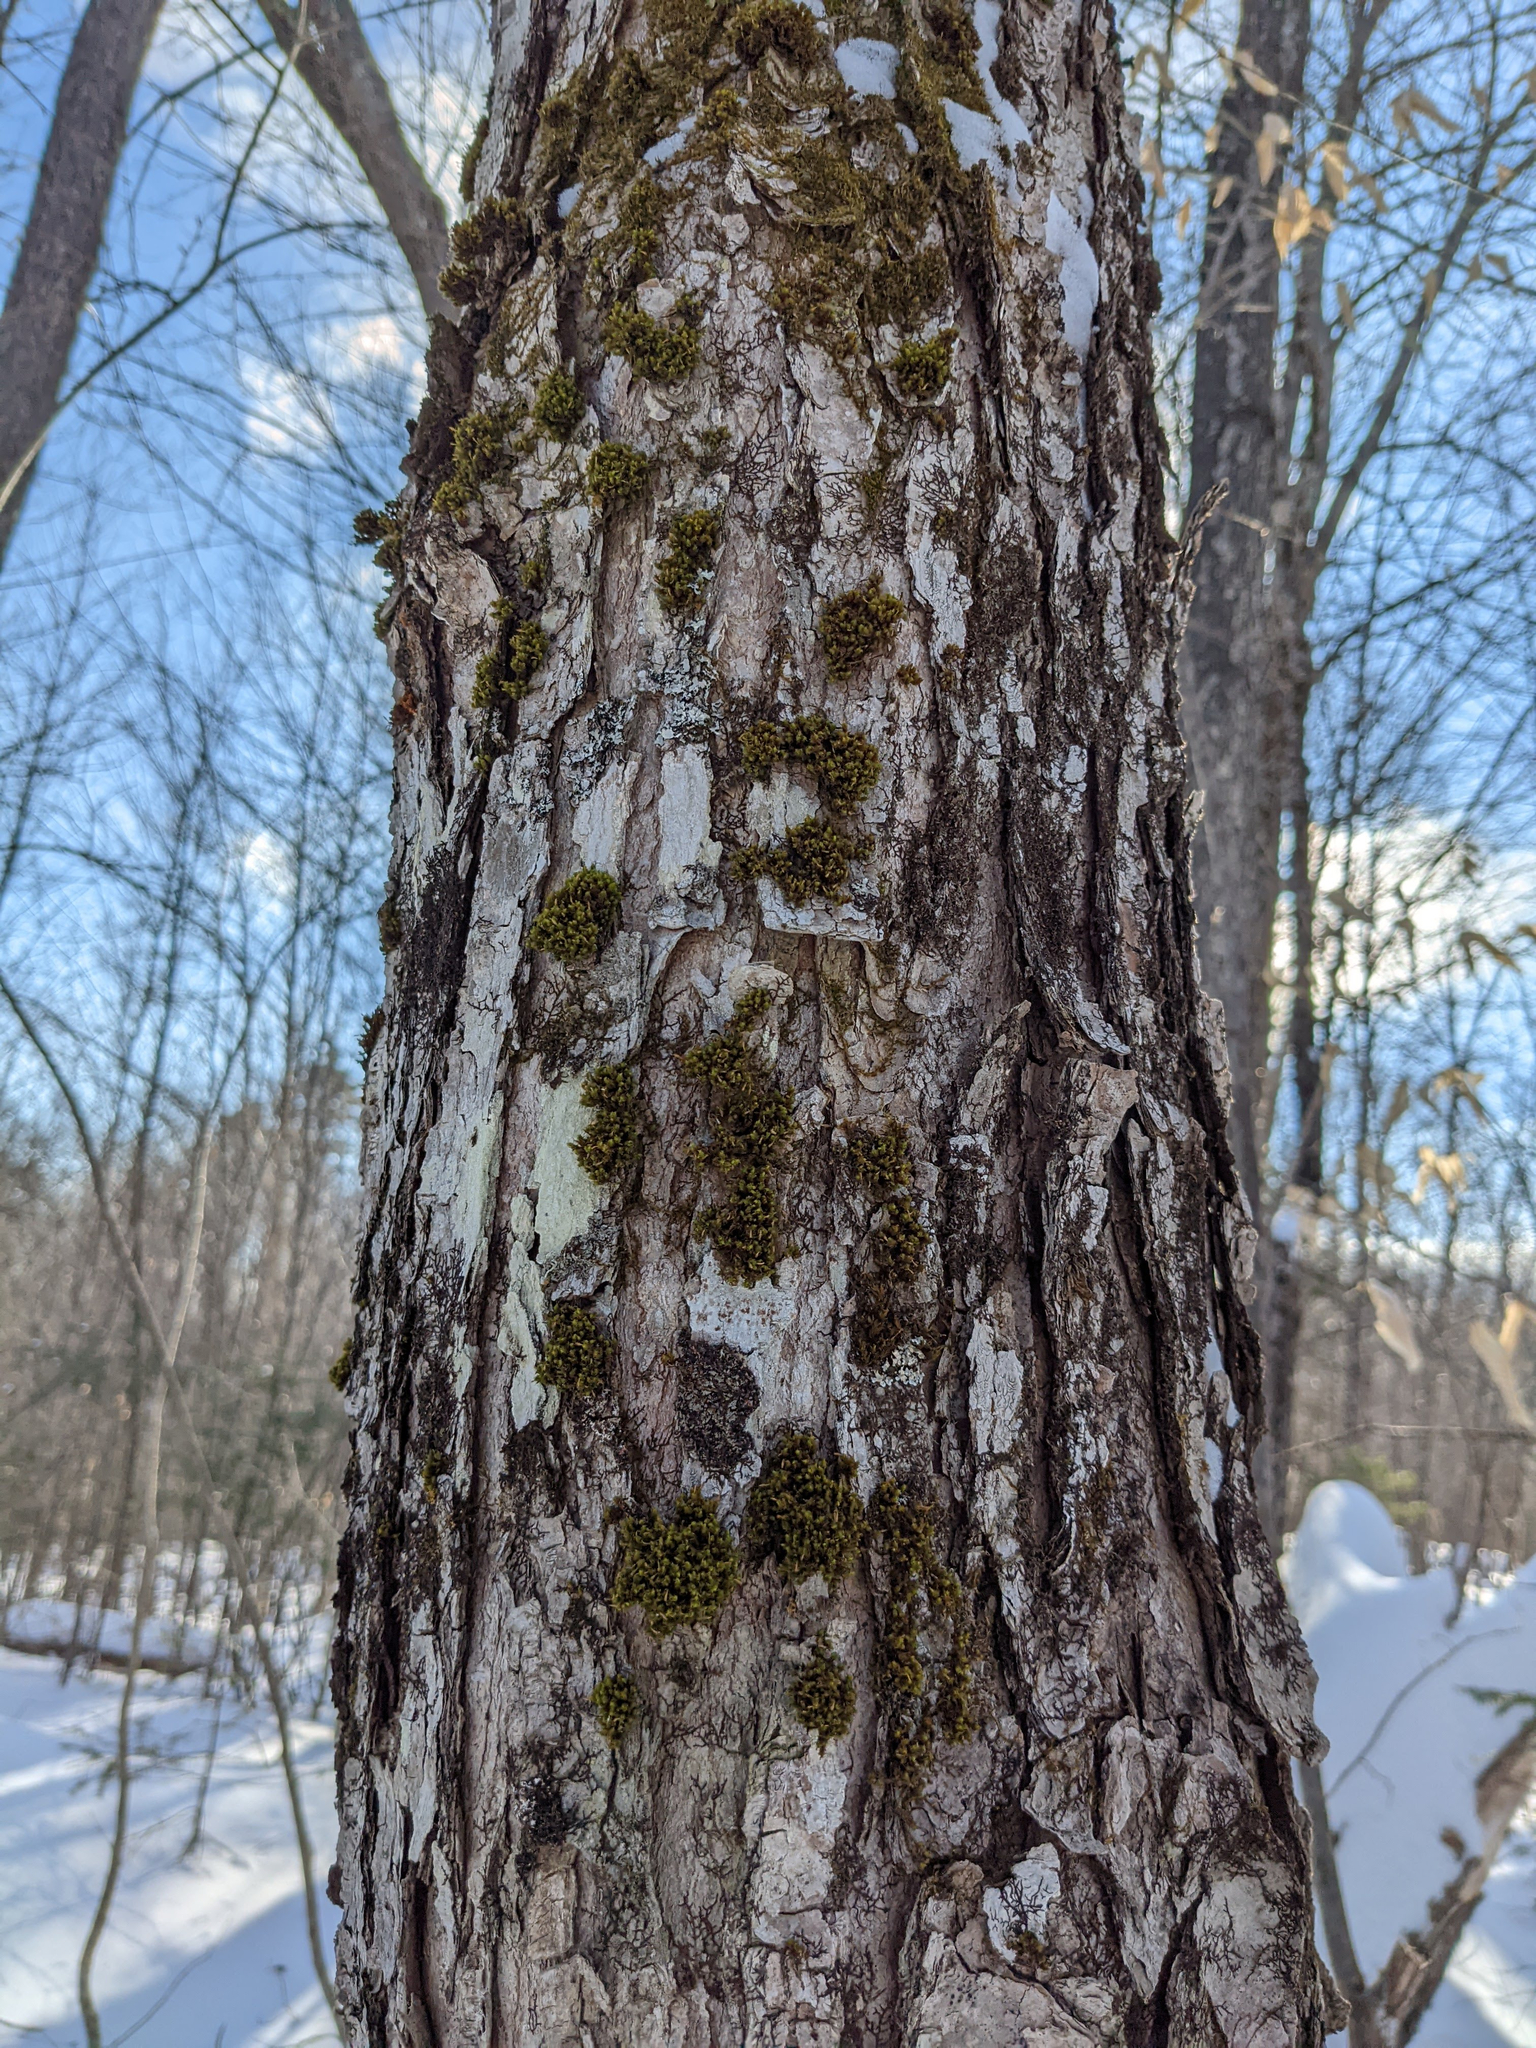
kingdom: Plantae
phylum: Bryophyta
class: Bryopsida
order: Orthotrichales
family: Orthotrichaceae
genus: Ulota
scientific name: Ulota crispa
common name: Crisped pincushion moss
